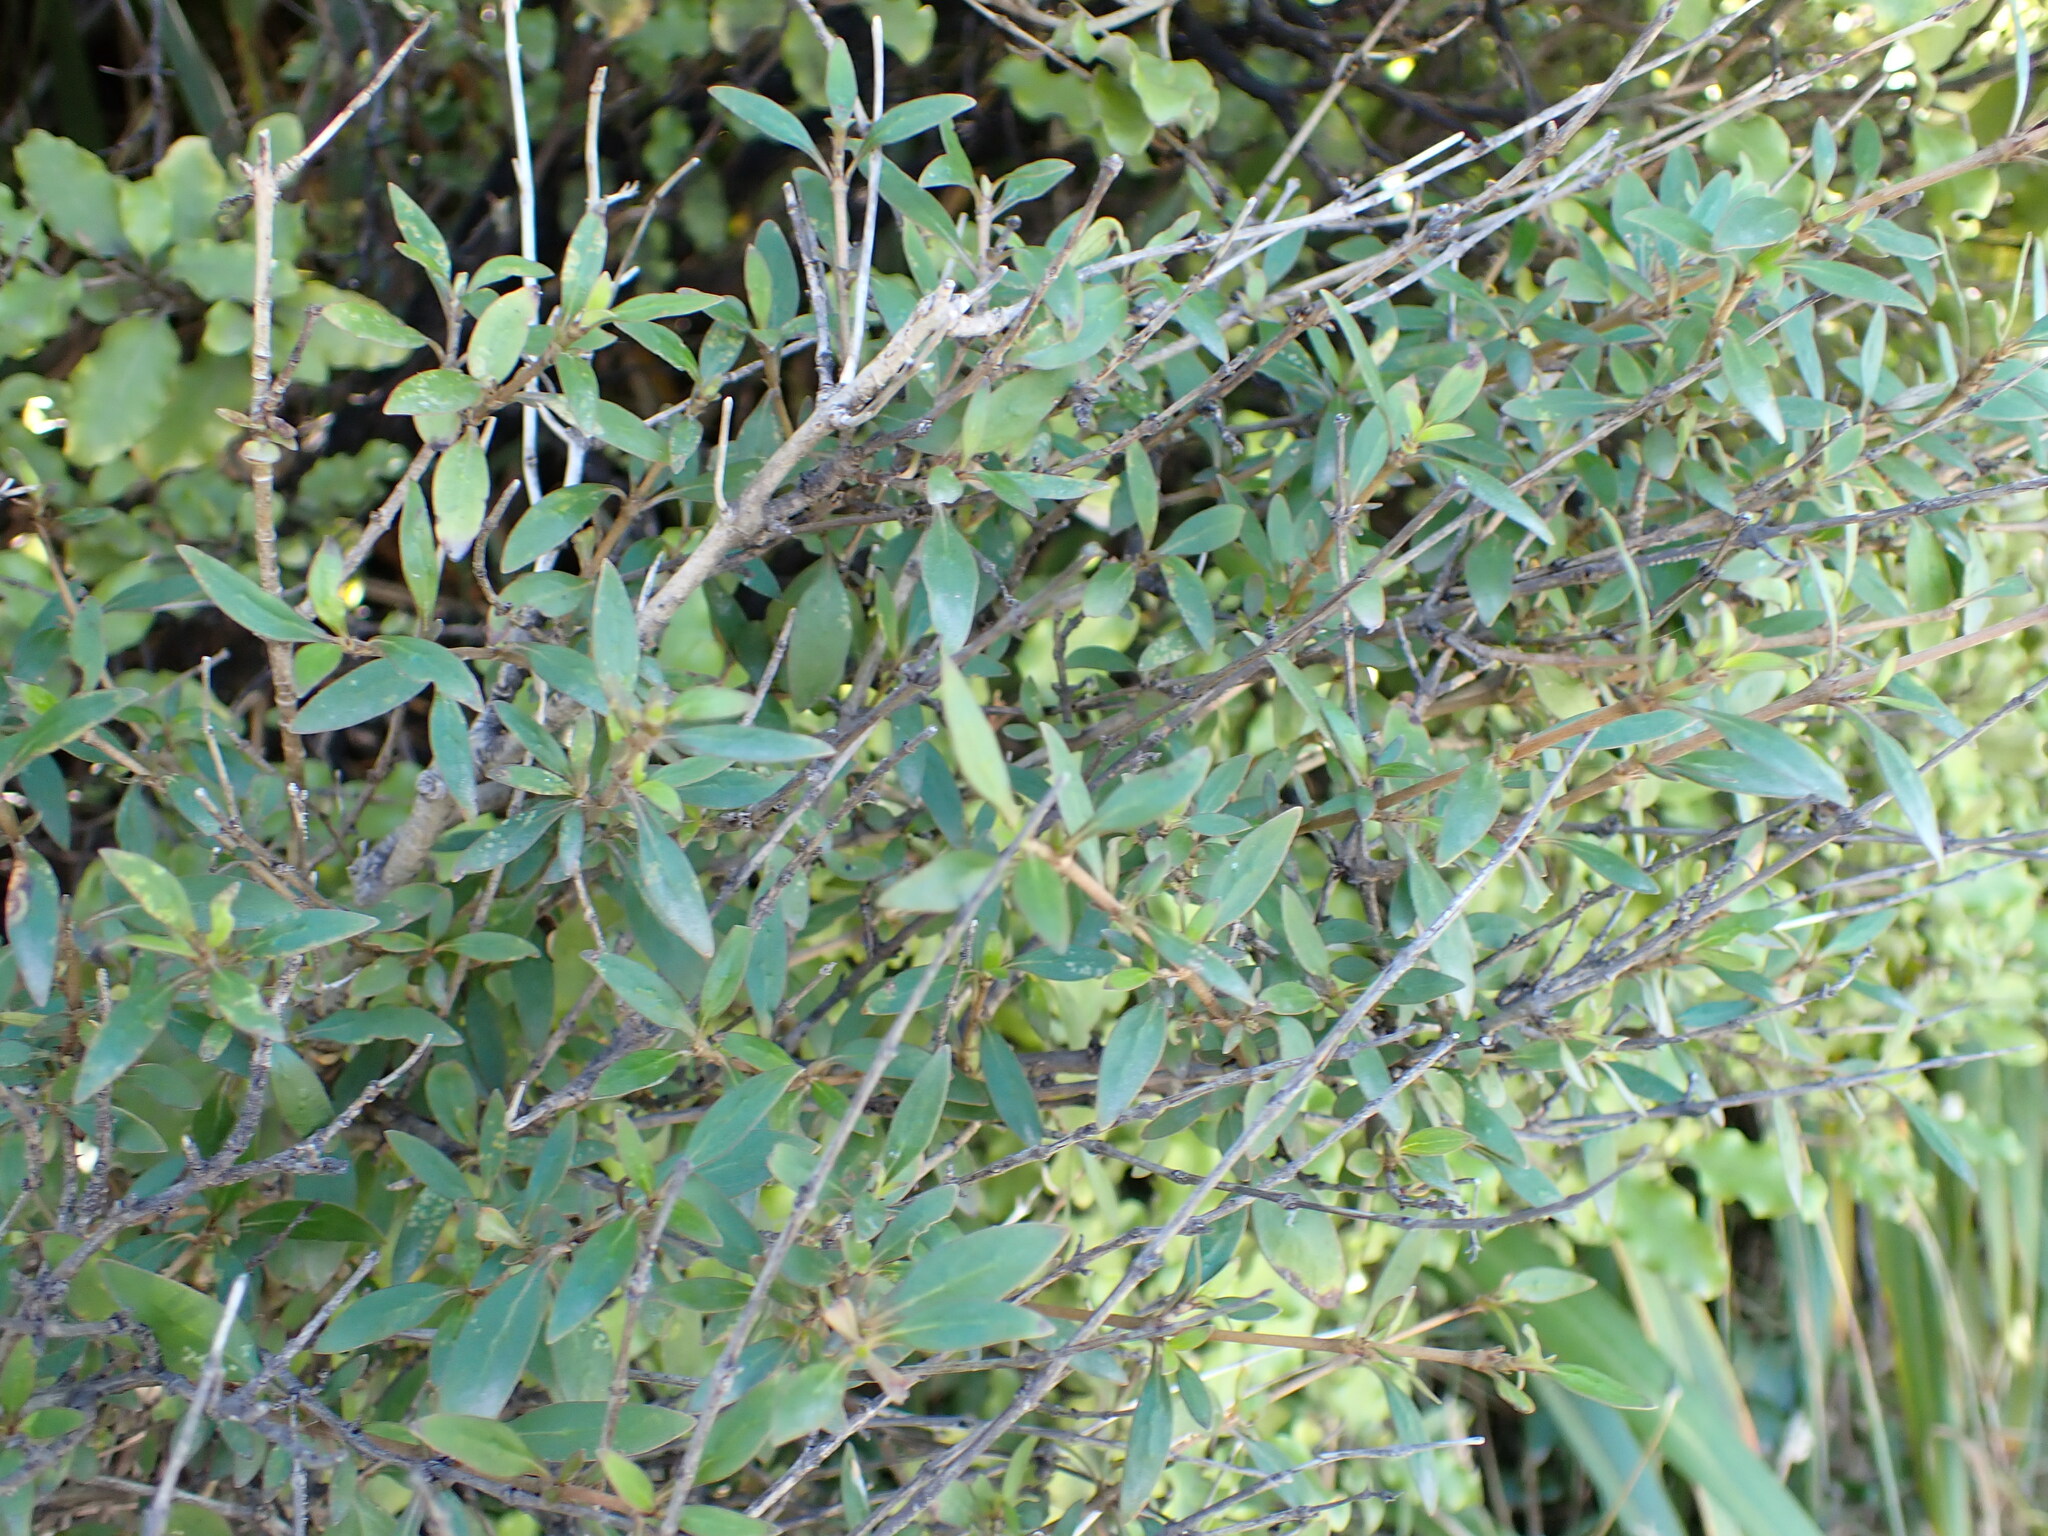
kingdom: Plantae
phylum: Tracheophyta
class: Magnoliopsida
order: Gentianales
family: Rubiaceae
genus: Coprosma
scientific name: Coprosma cunninghamii
